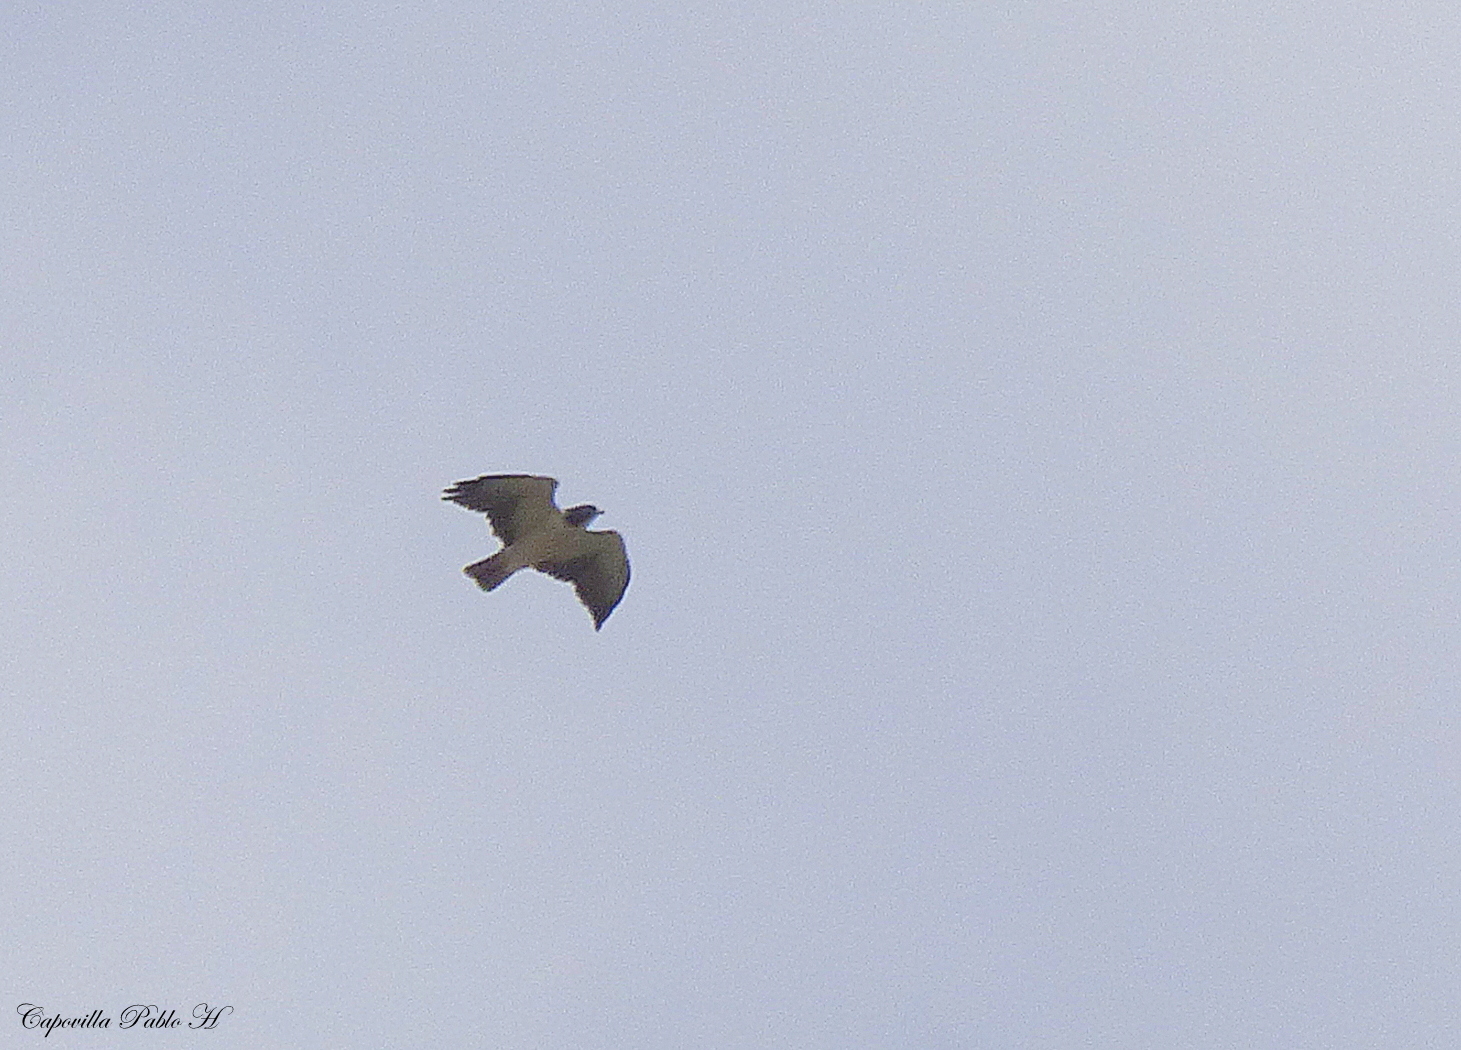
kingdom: Animalia
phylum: Chordata
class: Aves
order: Accipitriformes
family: Accipitridae
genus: Buteo
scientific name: Buteo brachyurus
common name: Short-tailed hawk
